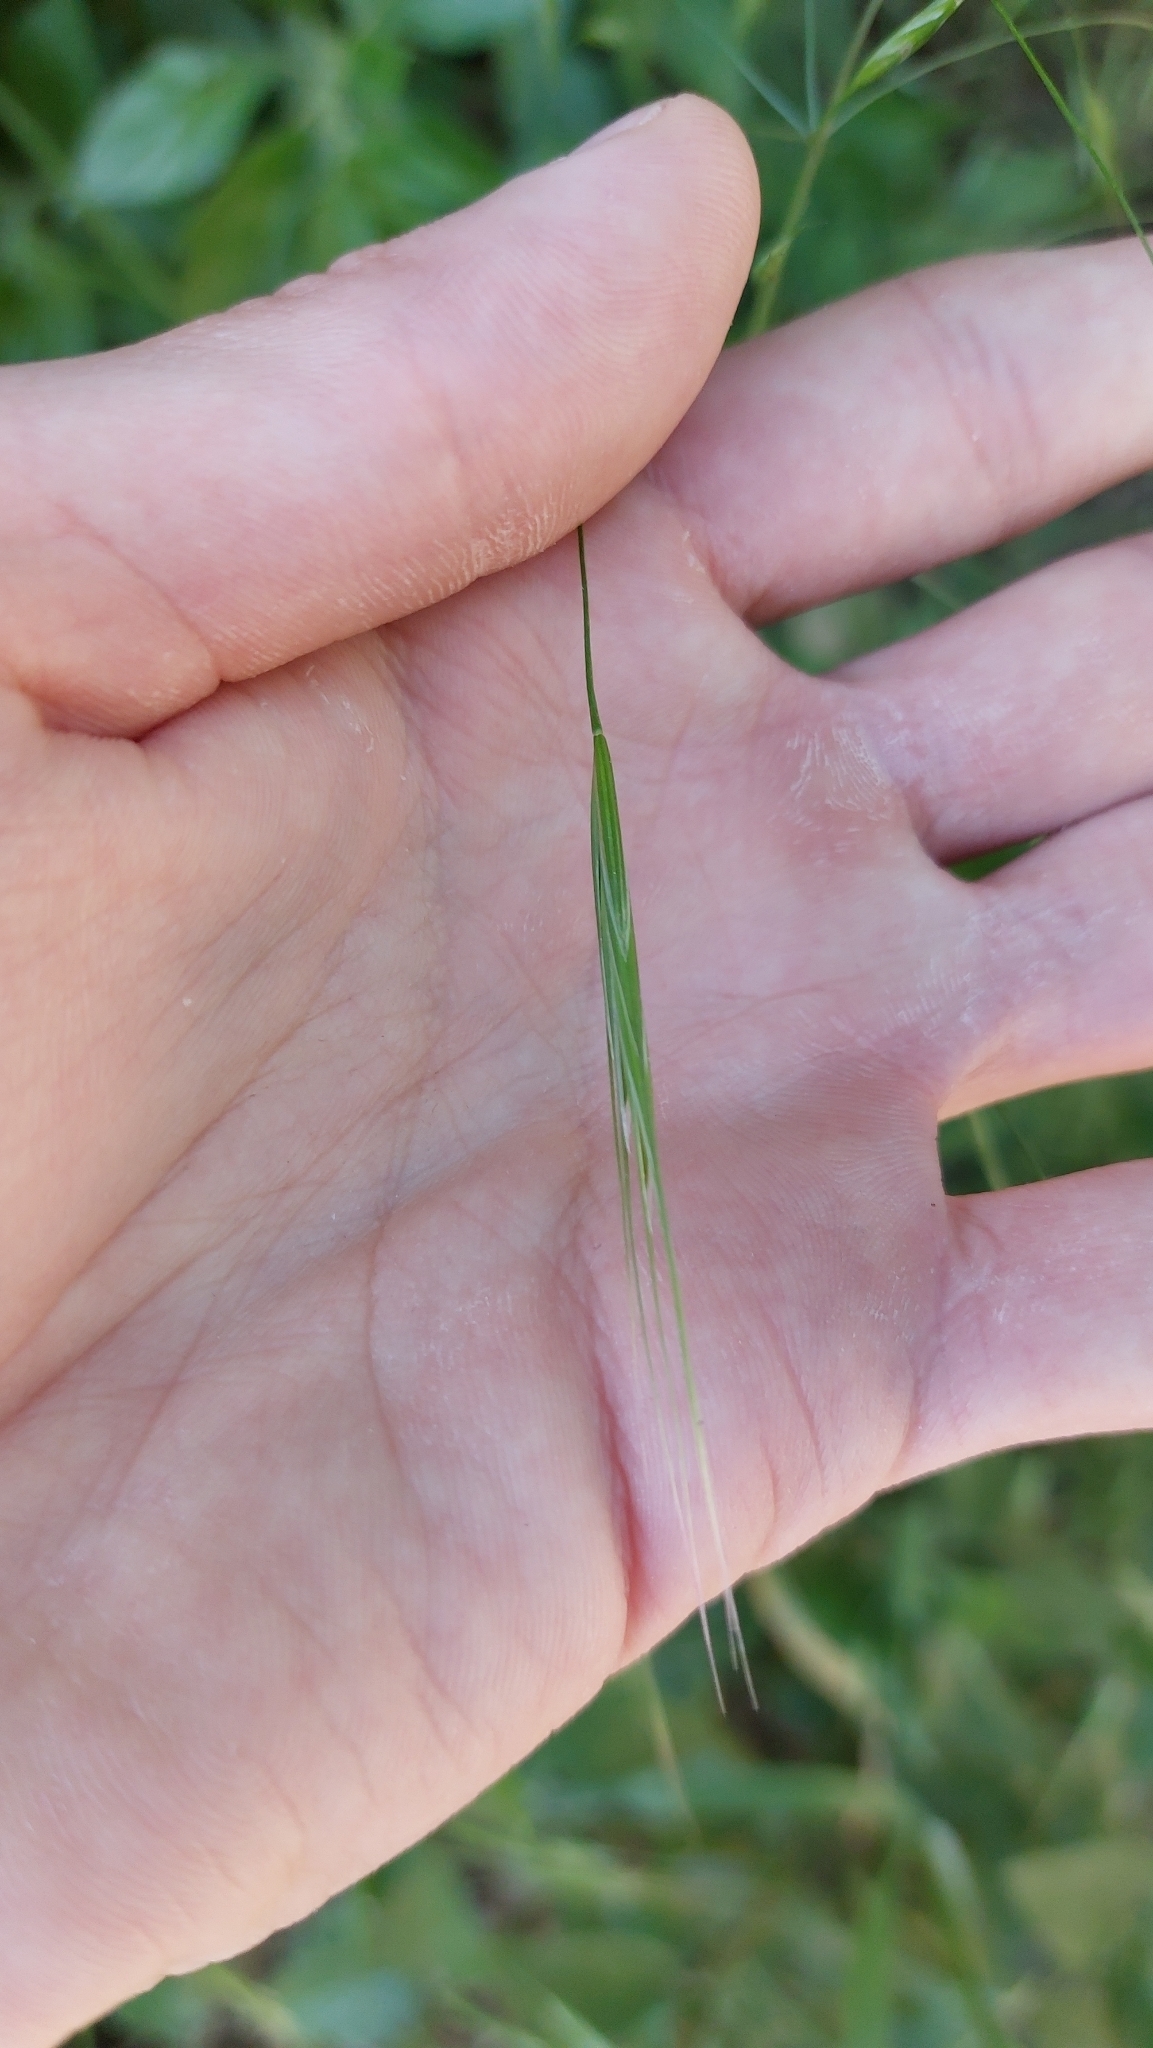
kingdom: Plantae
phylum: Tracheophyta
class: Liliopsida
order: Poales
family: Poaceae
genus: Bromus
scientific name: Bromus sterilis
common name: Poverty brome
